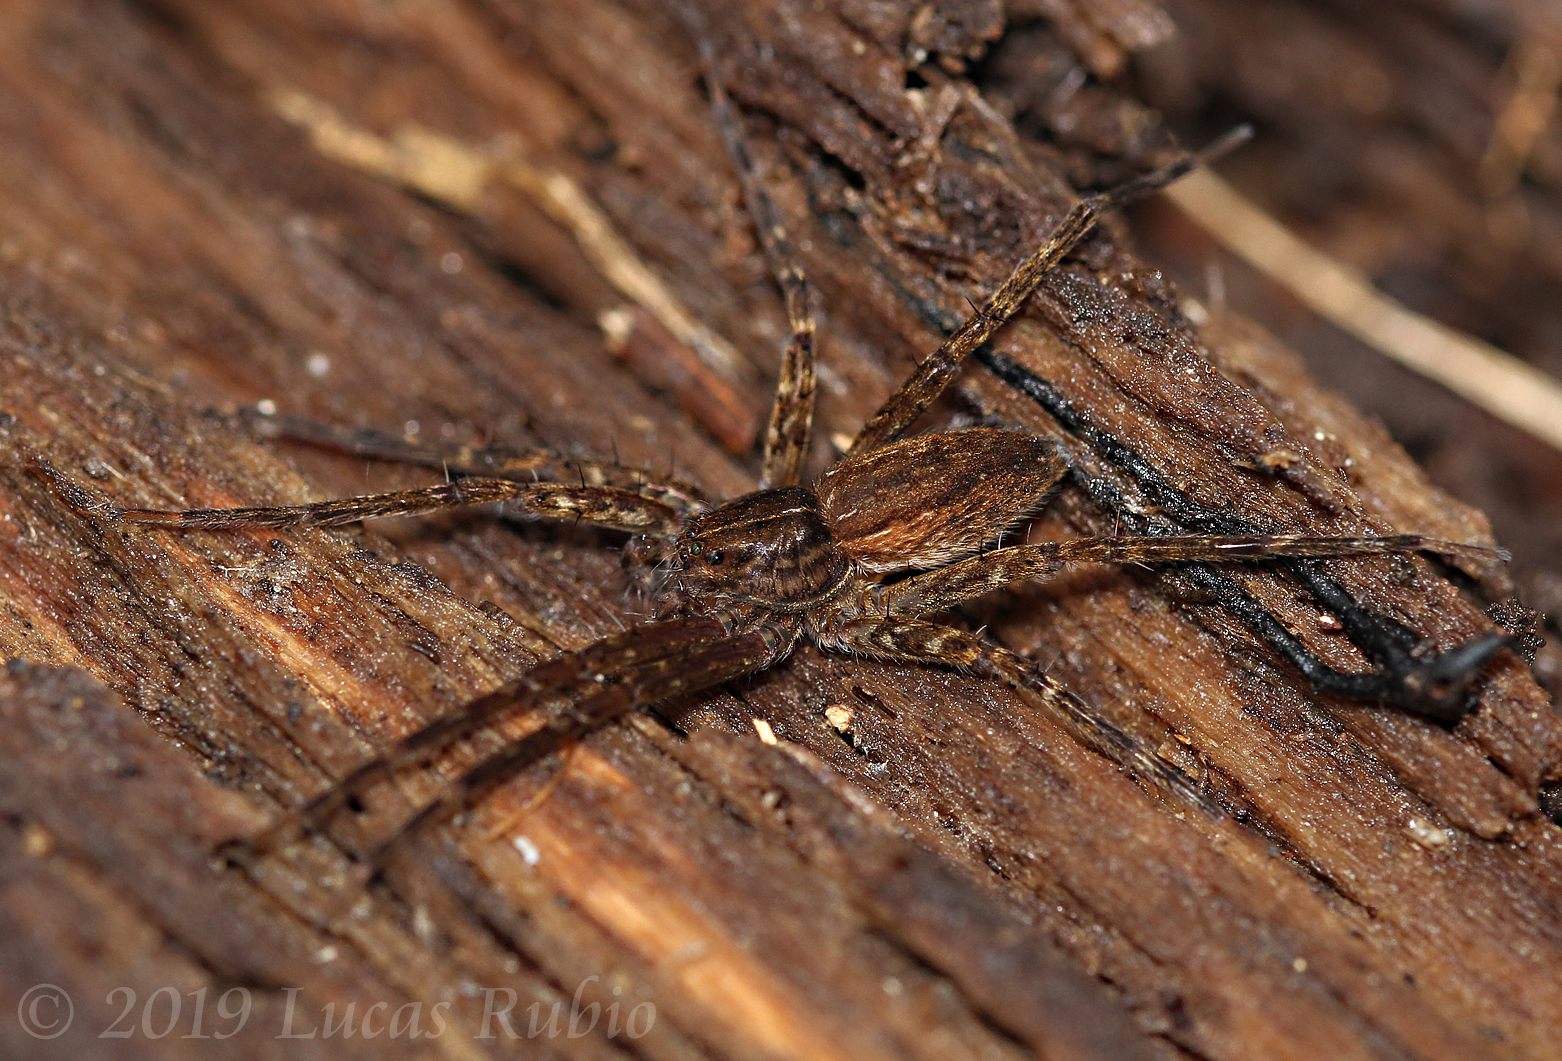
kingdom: Animalia
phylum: Arthropoda
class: Arachnida
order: Araneae
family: Pisauridae
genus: Architis
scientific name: Architis capricorna
